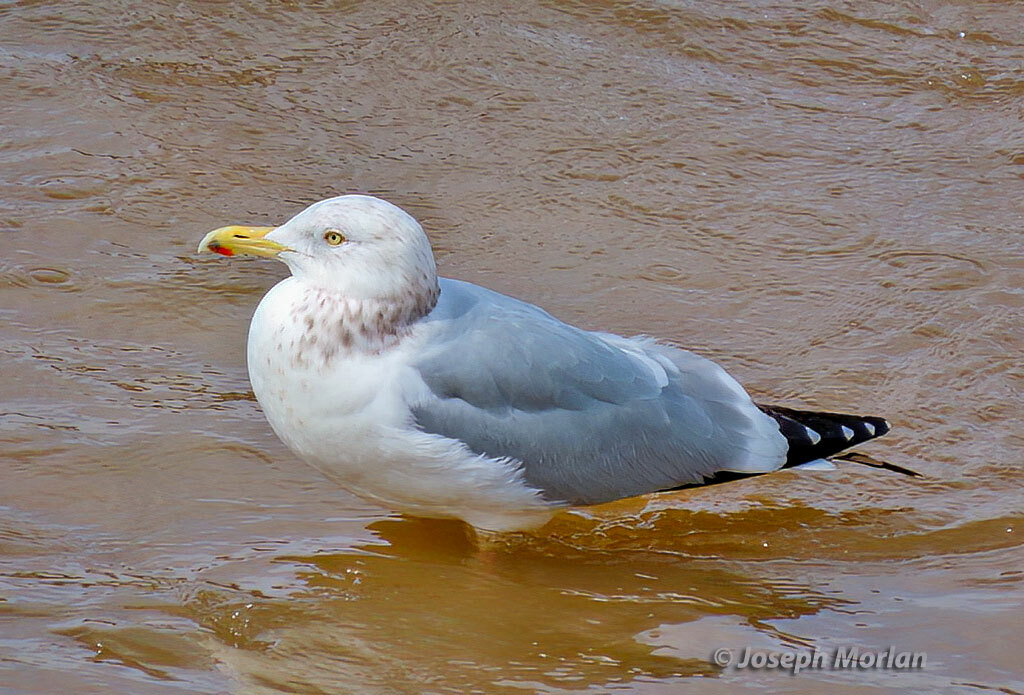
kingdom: Animalia
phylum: Chordata
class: Aves
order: Charadriiformes
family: Laridae
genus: Larus
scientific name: Larus argentatus
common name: Herring gull
